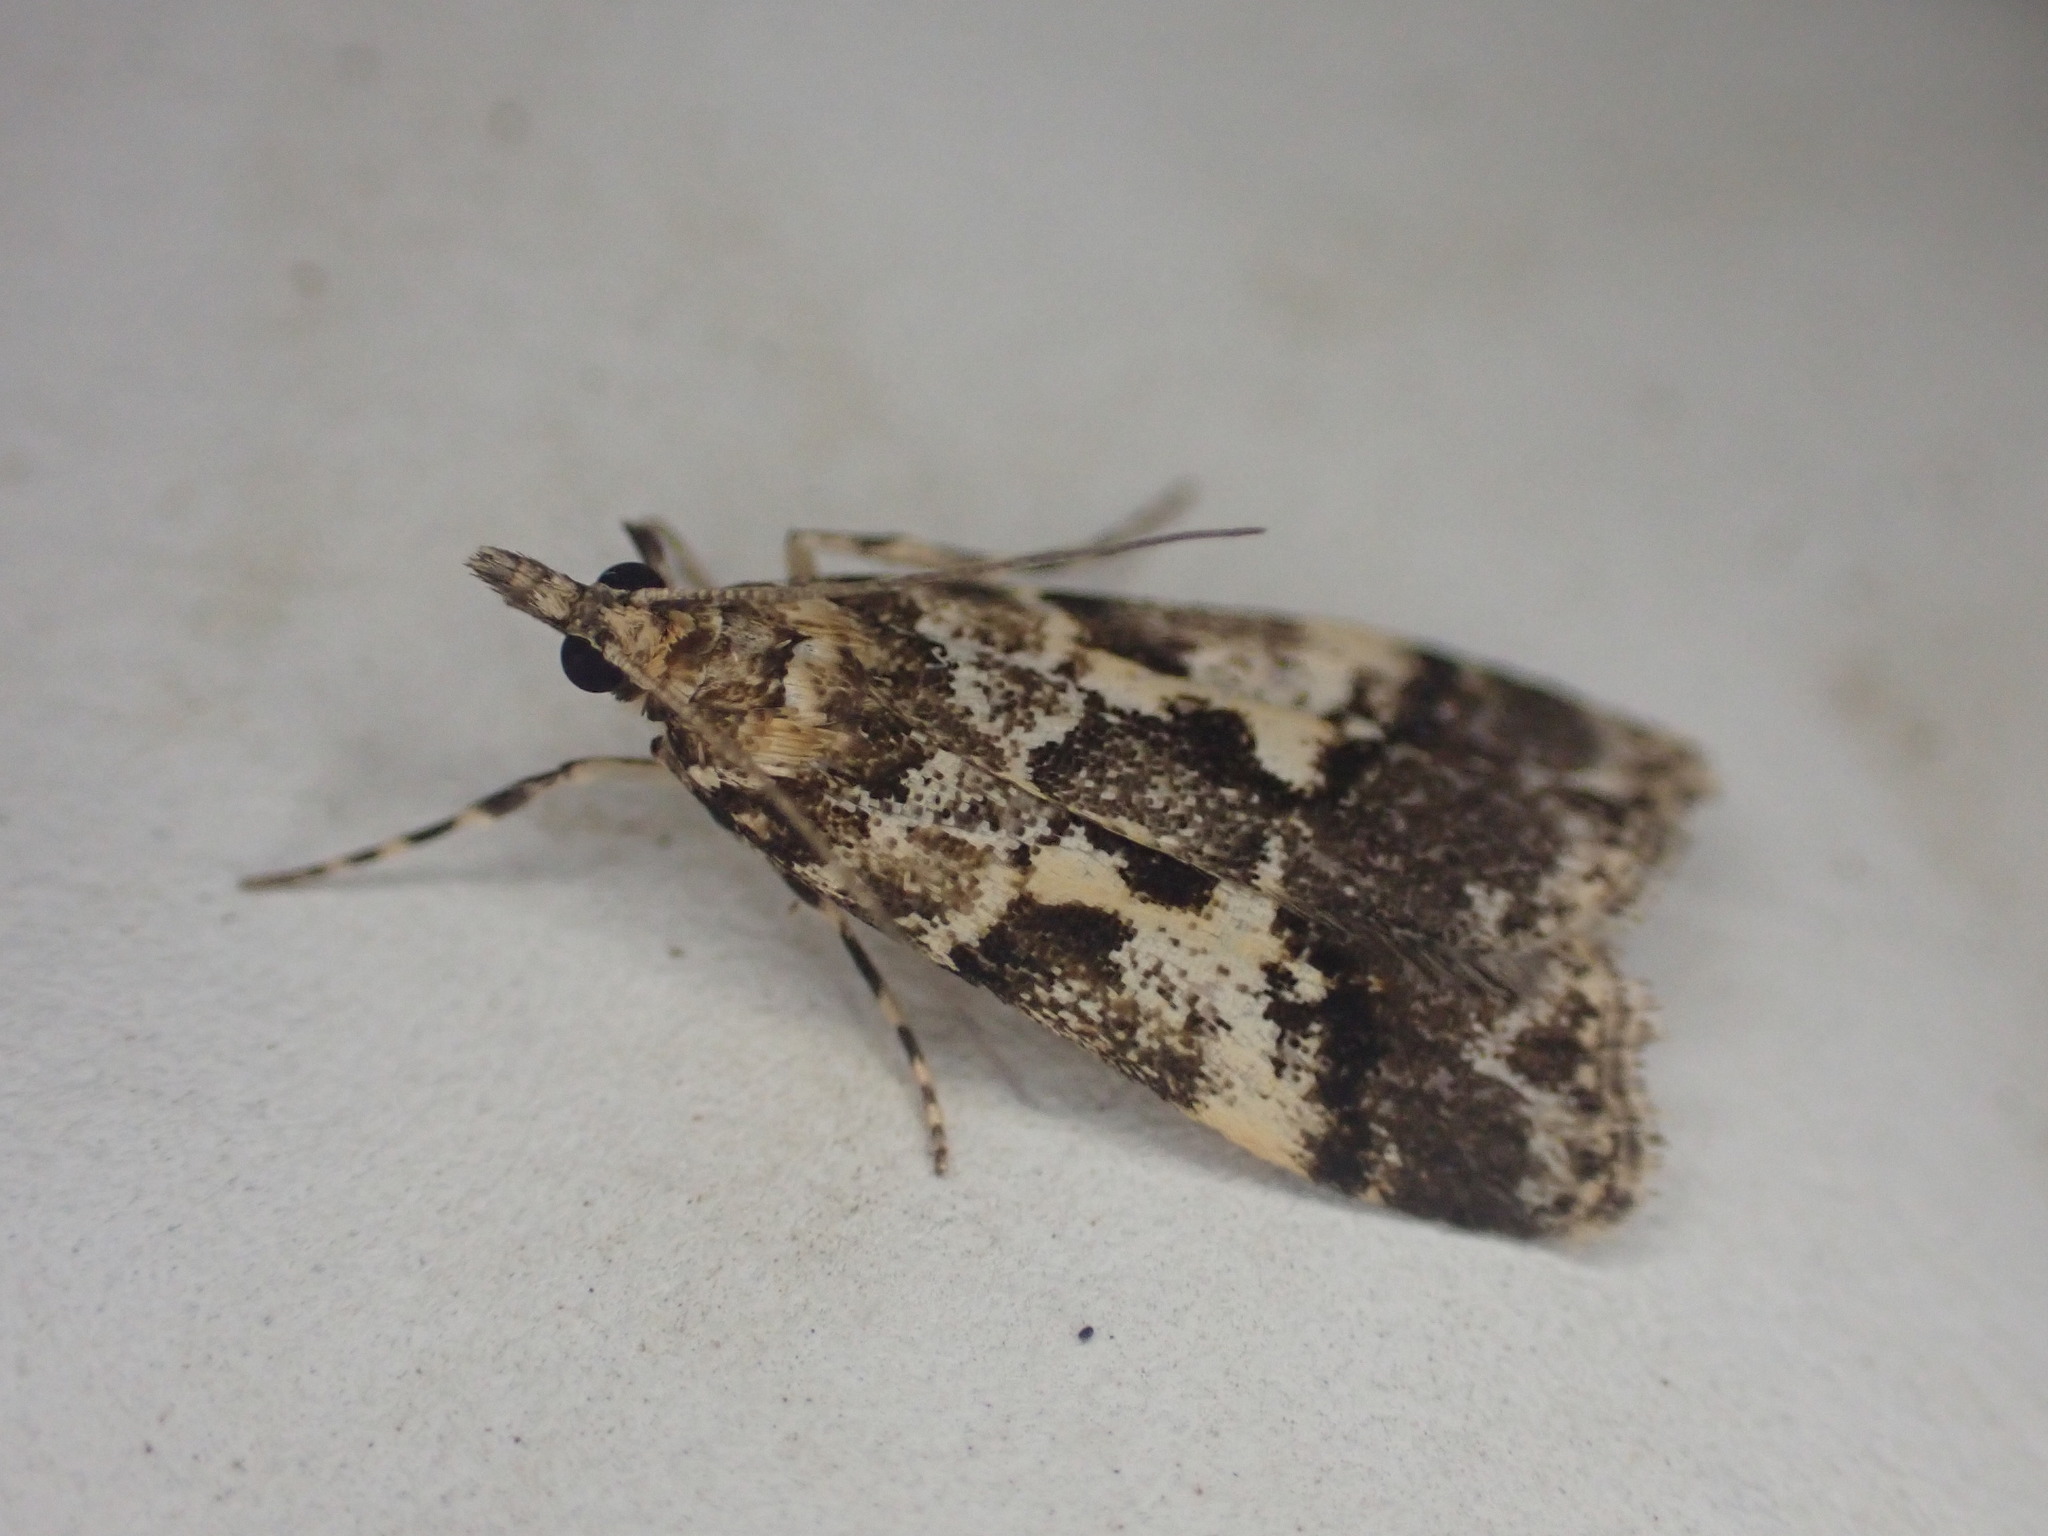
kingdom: Animalia
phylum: Arthropoda
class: Insecta
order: Lepidoptera
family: Crambidae
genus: Eudonia
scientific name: Eudonia characta
